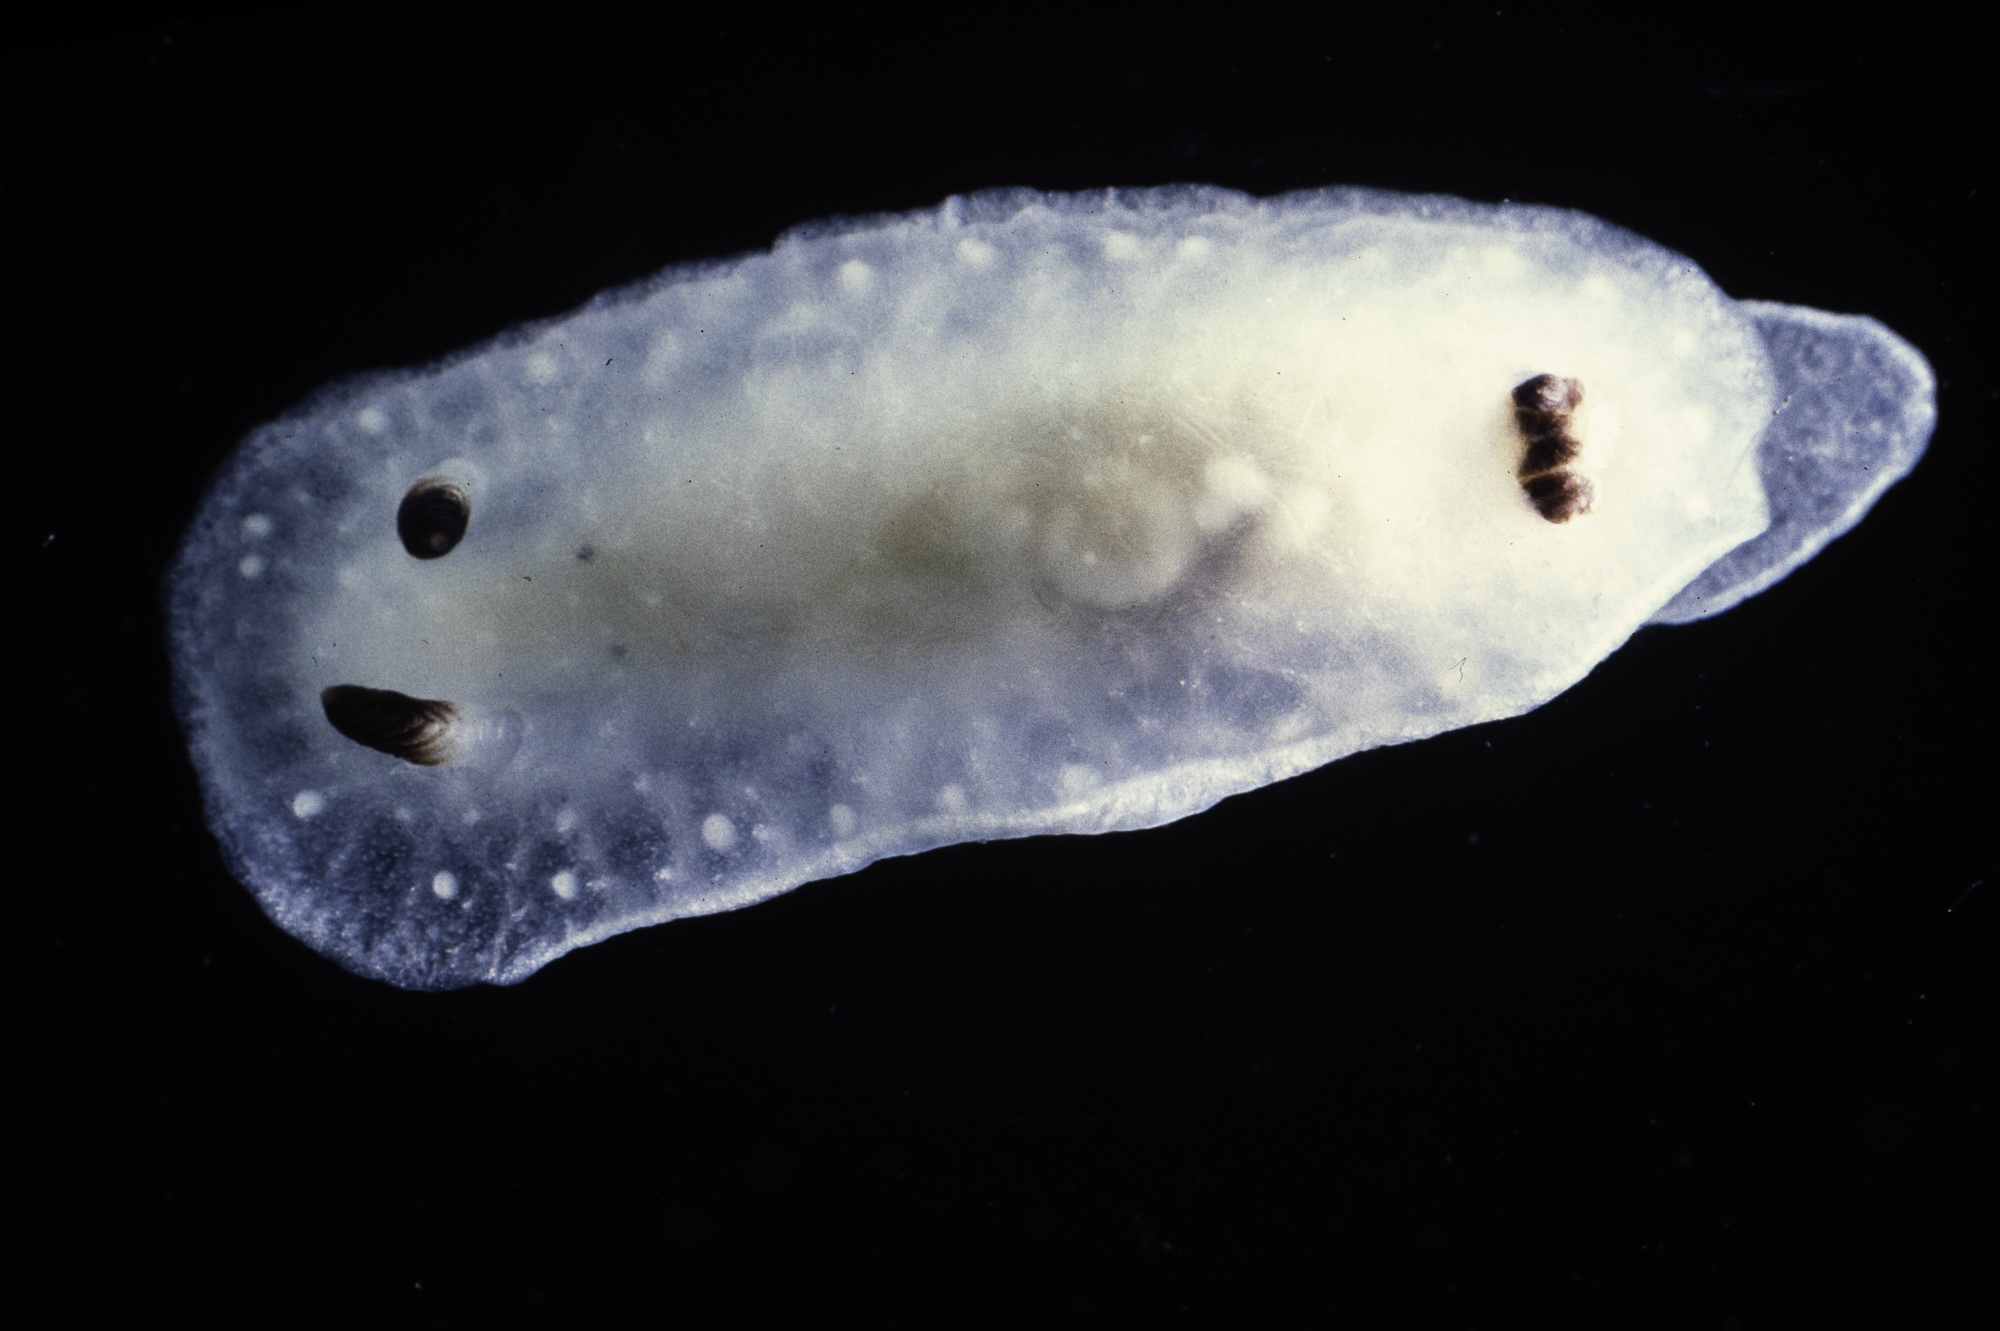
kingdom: Animalia
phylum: Mollusca
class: Gastropoda
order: Nudibranchia
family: Cadlinidae
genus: Cadlina
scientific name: Cadlina pellucida
